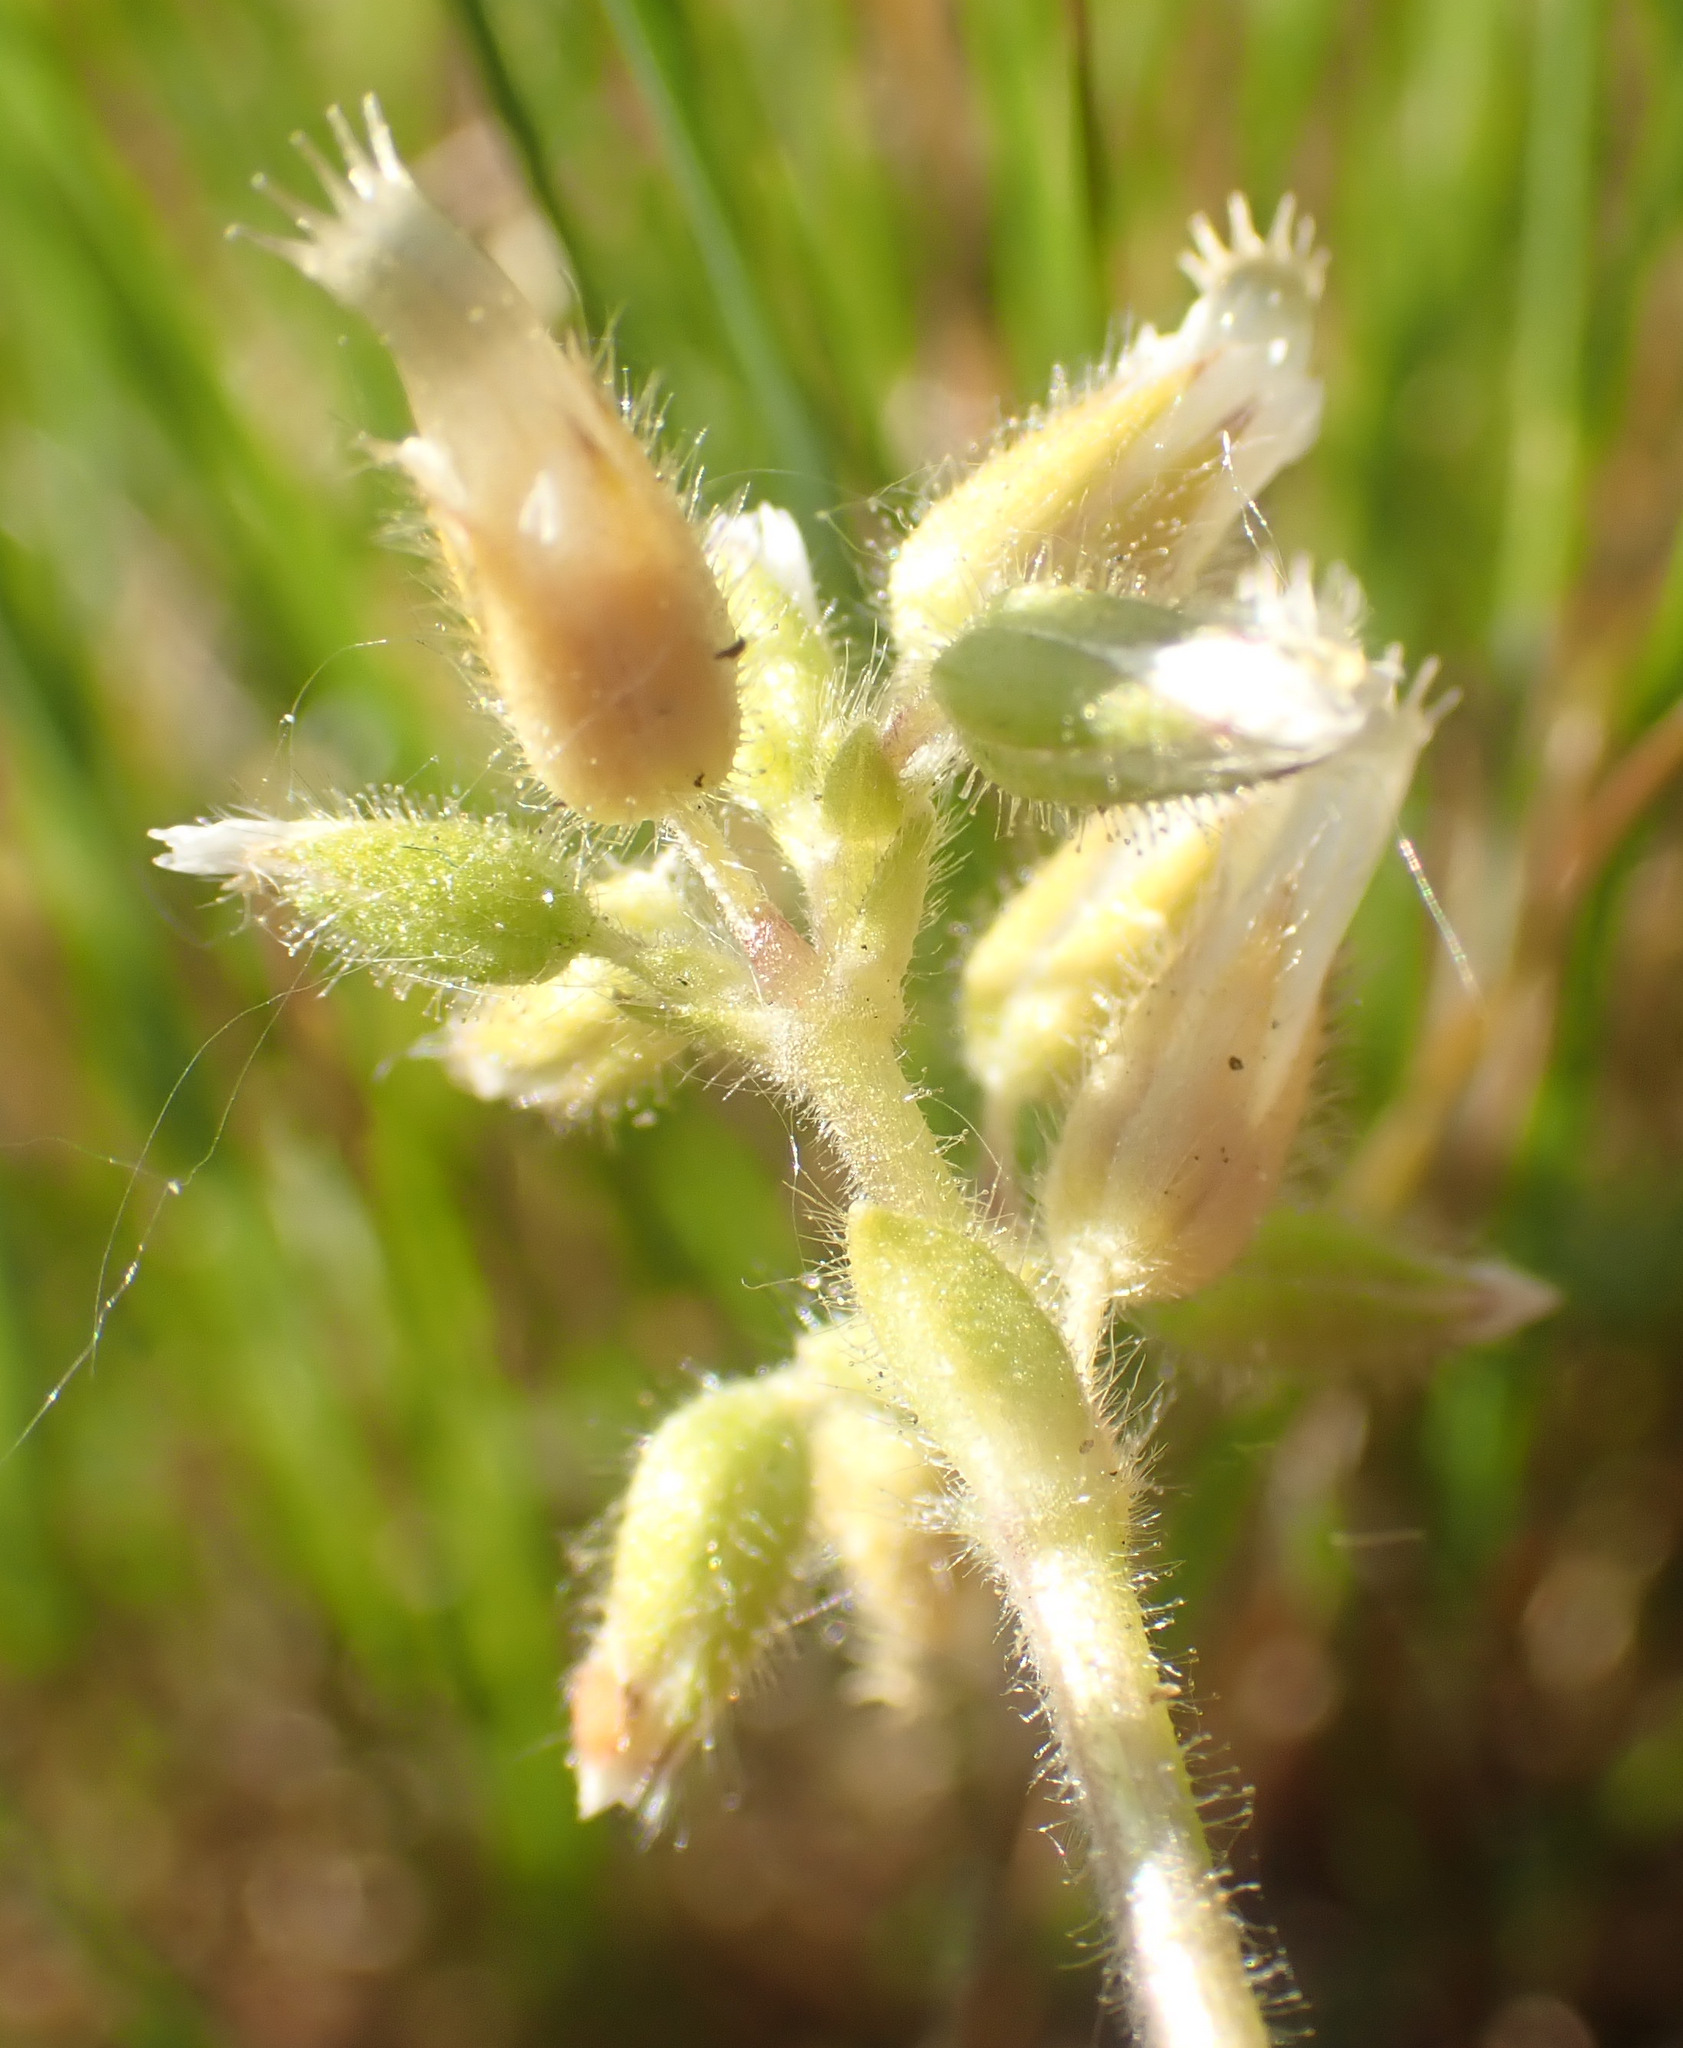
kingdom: Plantae
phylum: Tracheophyta
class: Magnoliopsida
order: Caryophyllales
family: Caryophyllaceae
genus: Cerastium
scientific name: Cerastium glomeratum
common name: Sticky chickweed
